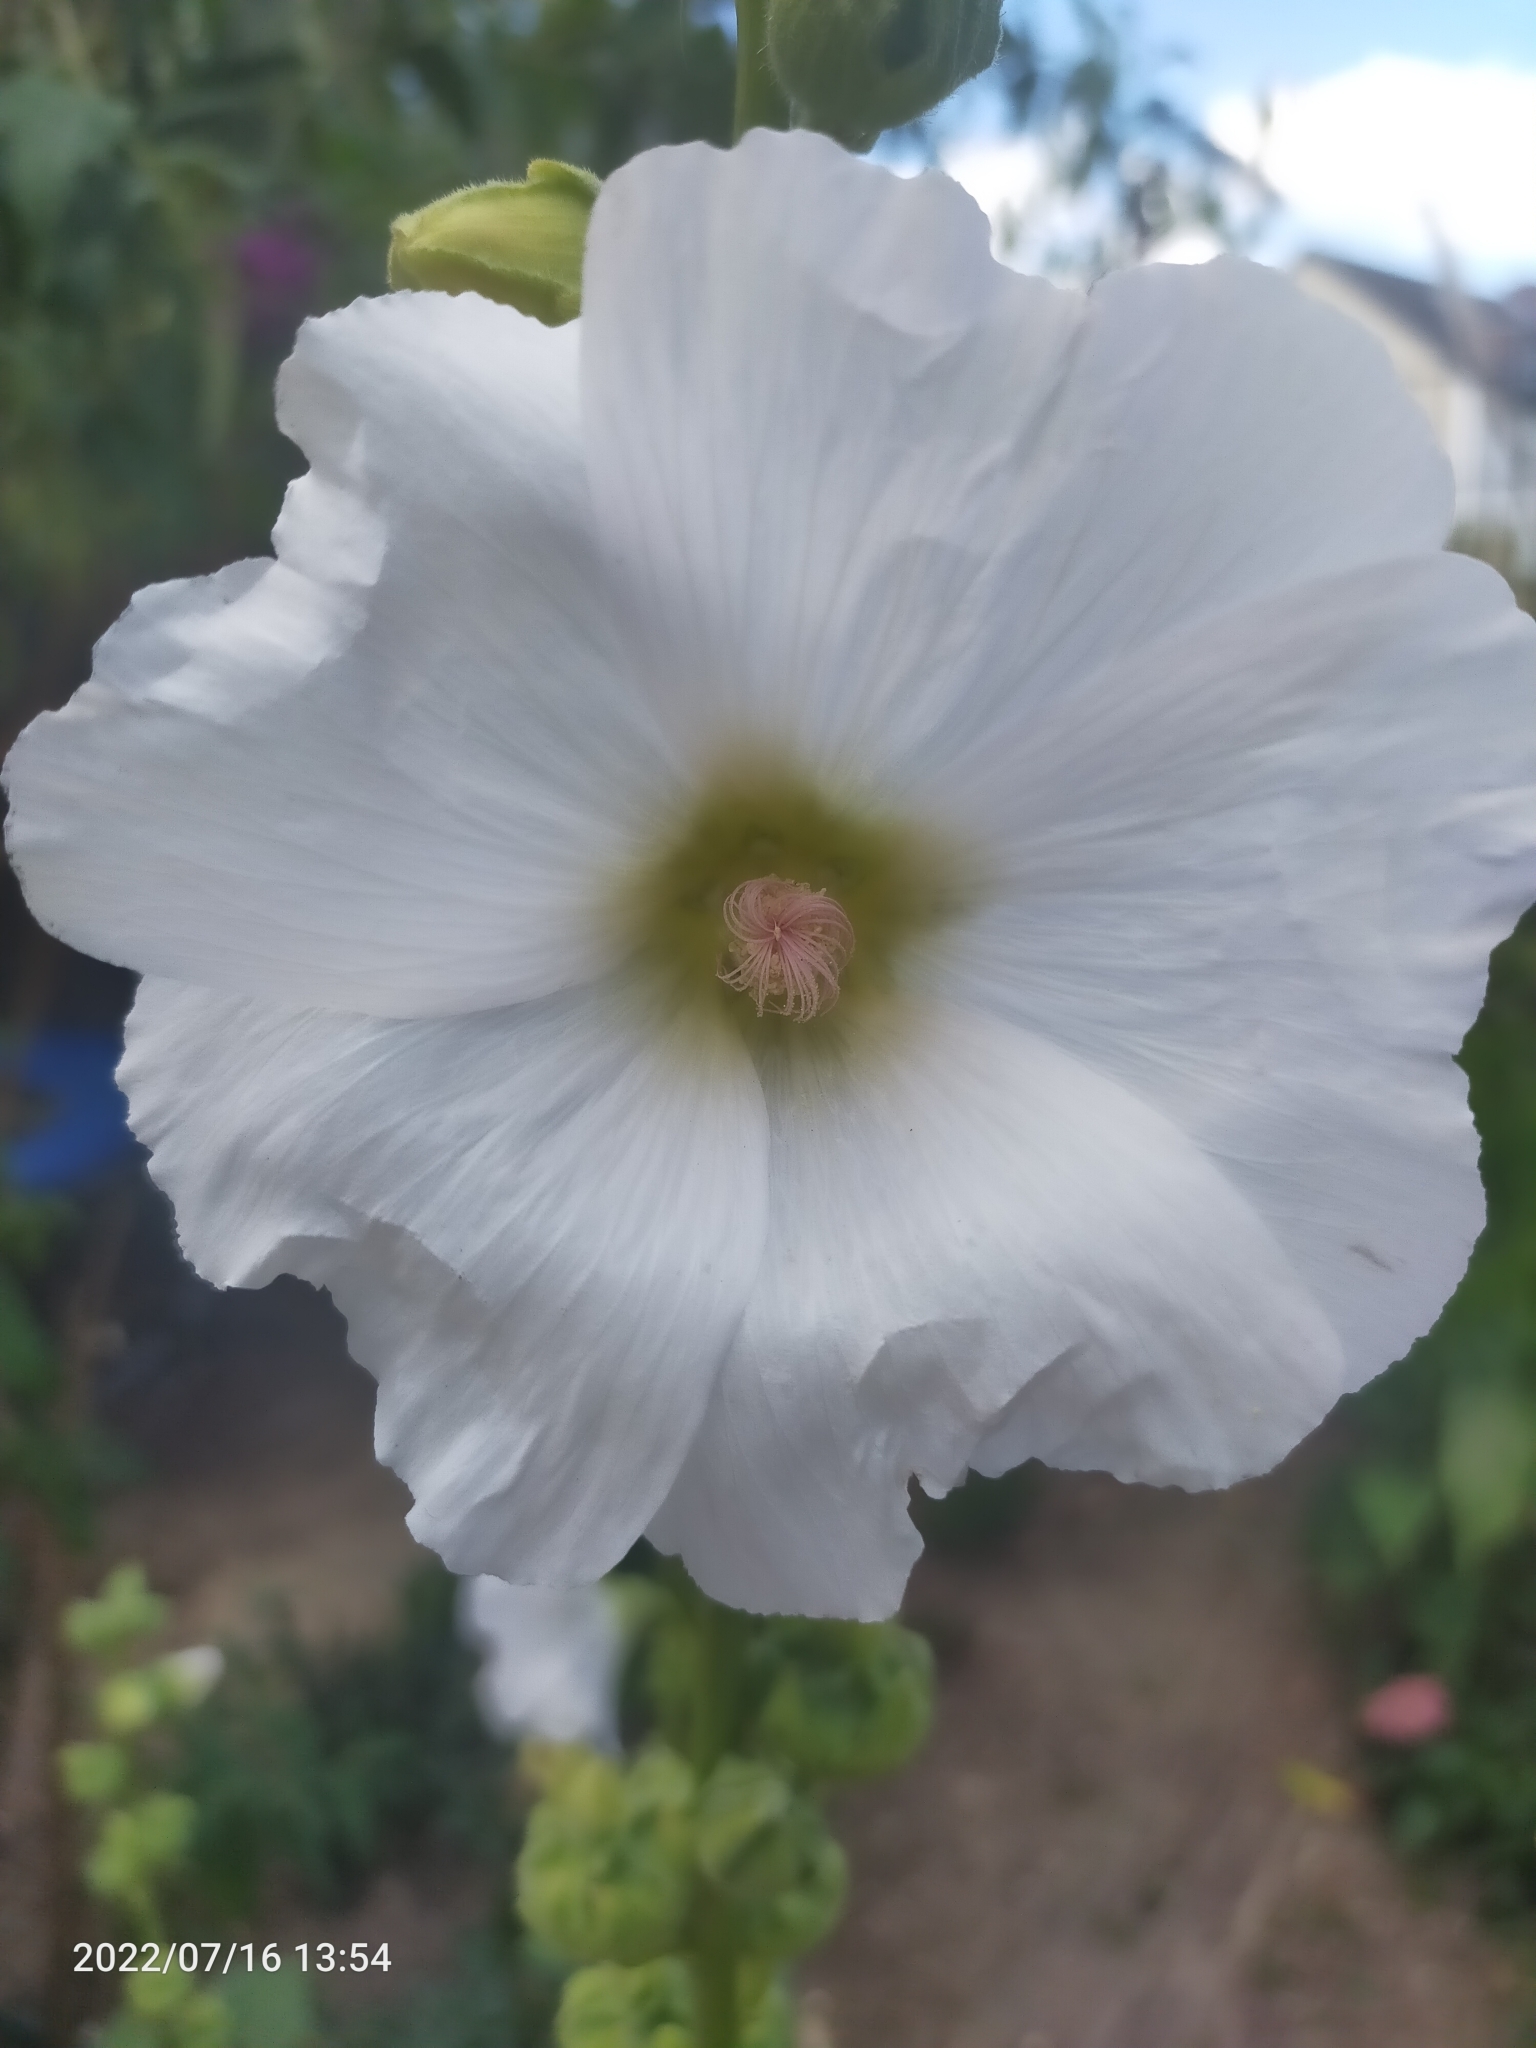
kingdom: Plantae
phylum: Tracheophyta
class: Magnoliopsida
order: Malvales
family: Malvaceae
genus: Alcea
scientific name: Alcea
